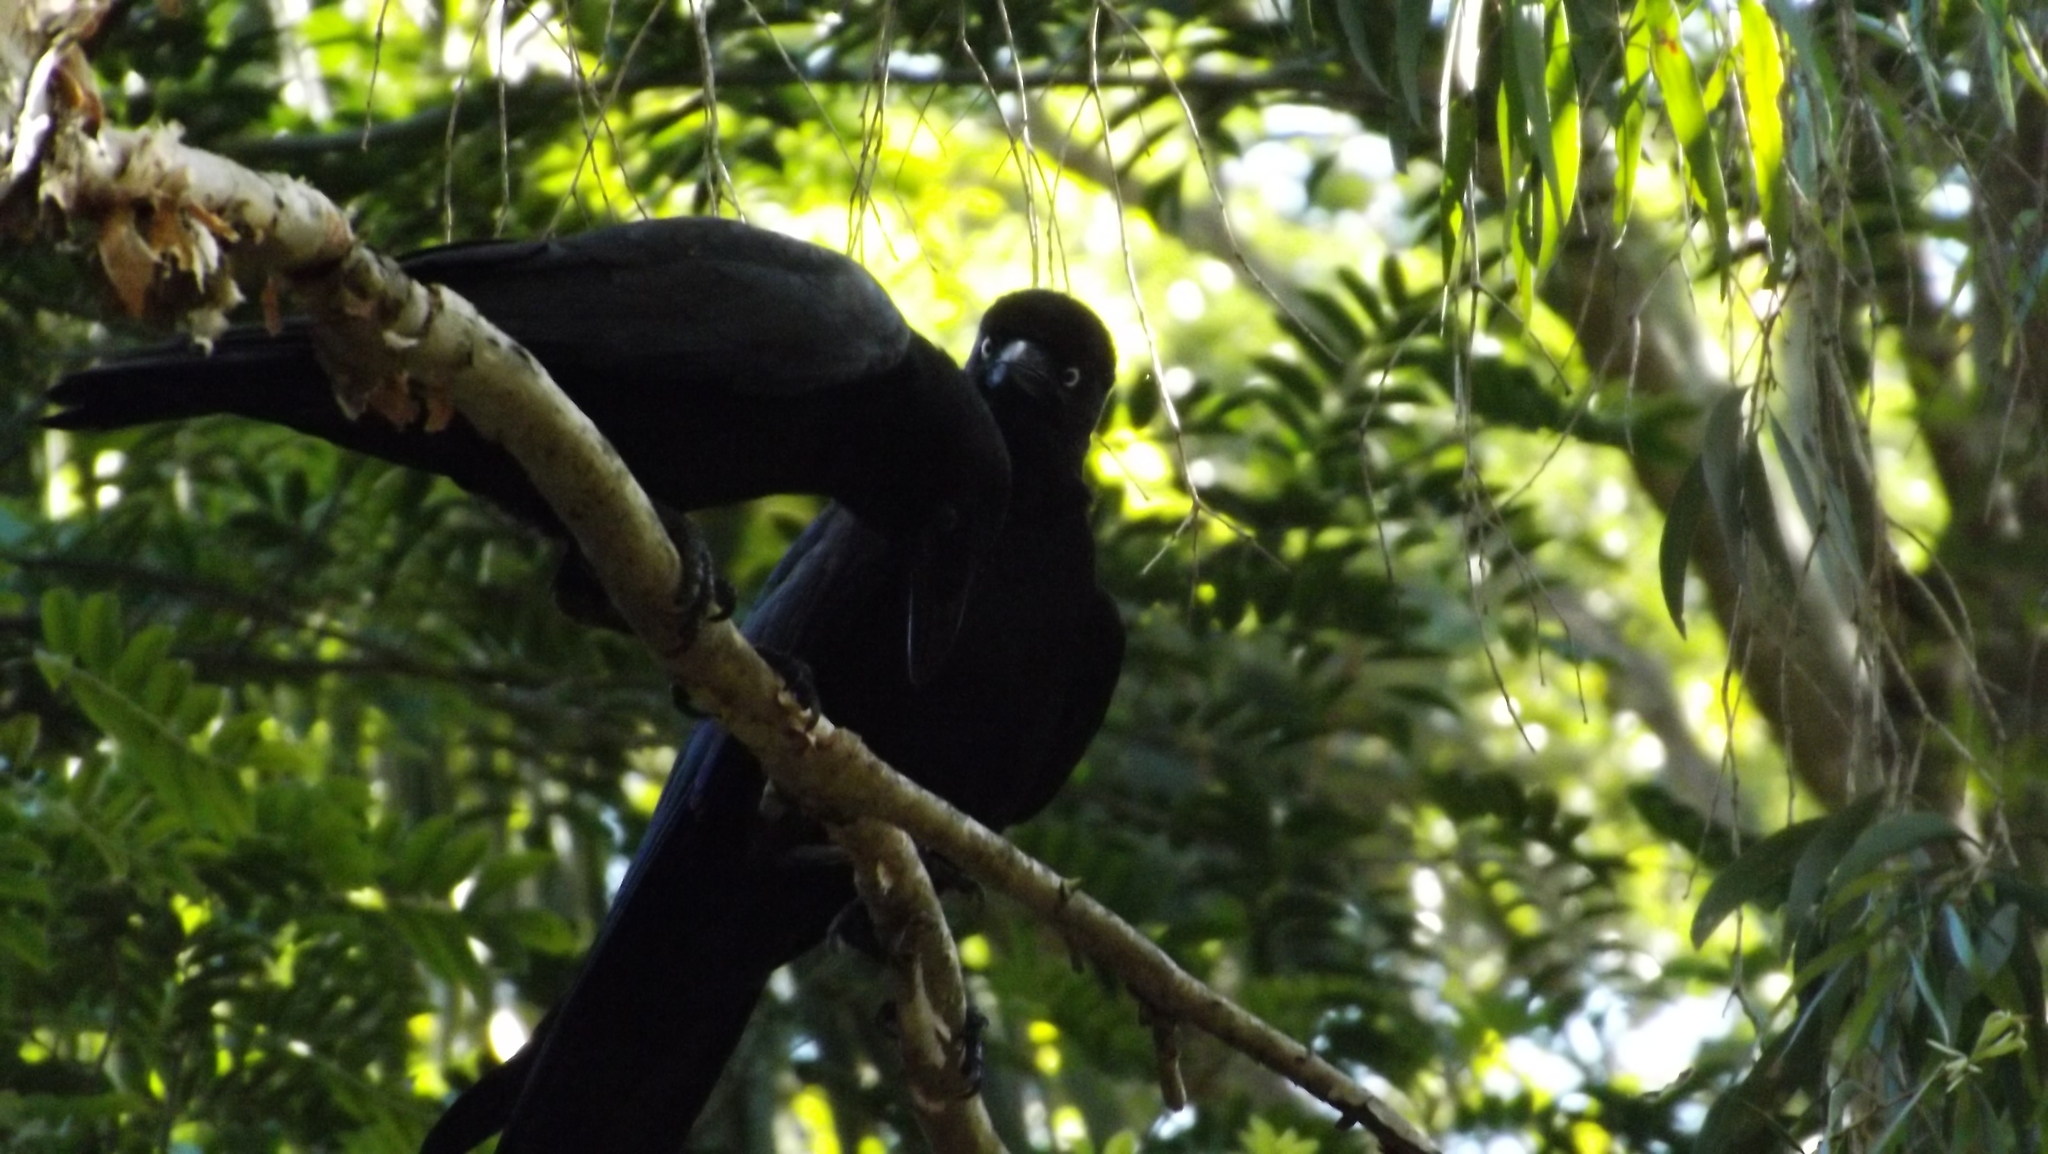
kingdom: Animalia
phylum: Chordata
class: Aves
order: Passeriformes
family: Corvidae
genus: Corvus
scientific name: Corvus orru
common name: Torresian crow
